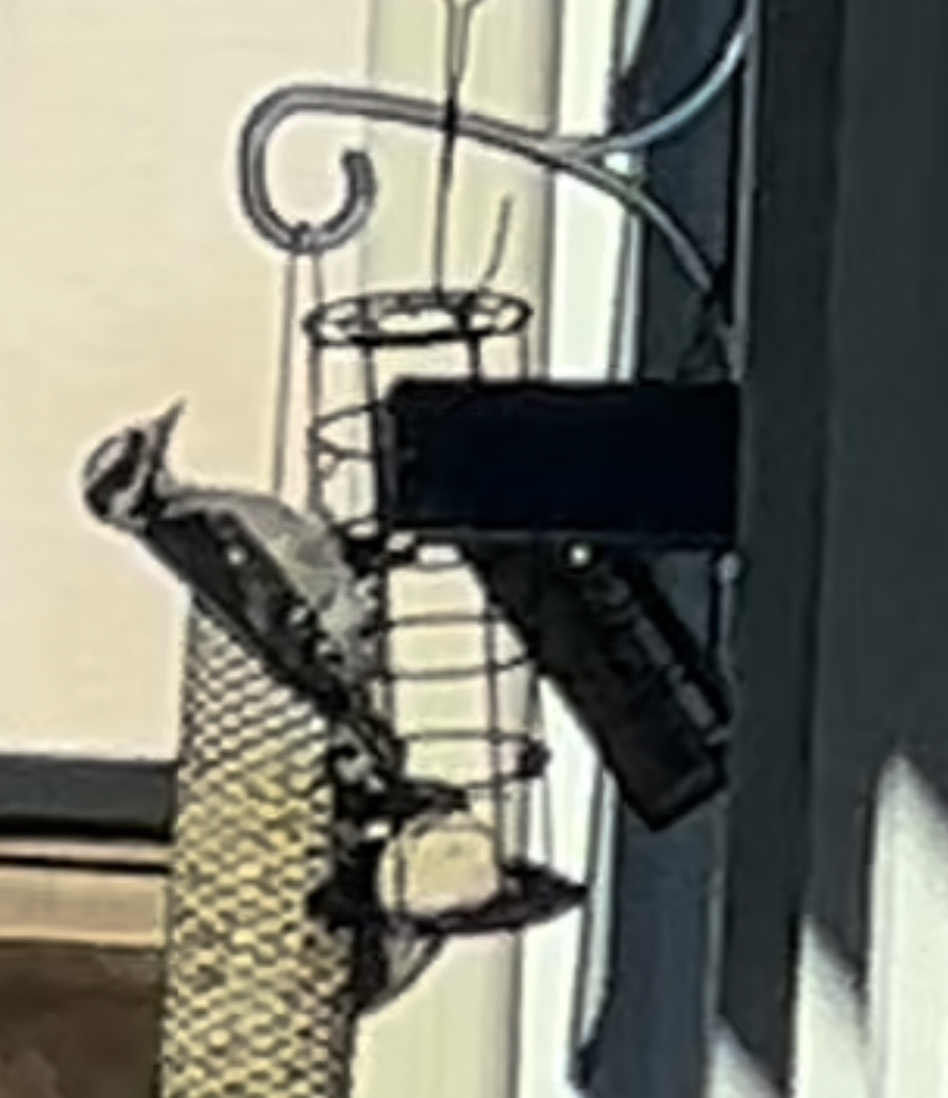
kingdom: Animalia
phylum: Chordata
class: Aves
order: Piciformes
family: Picidae
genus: Dryobates
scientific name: Dryobates pubescens
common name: Downy woodpecker
